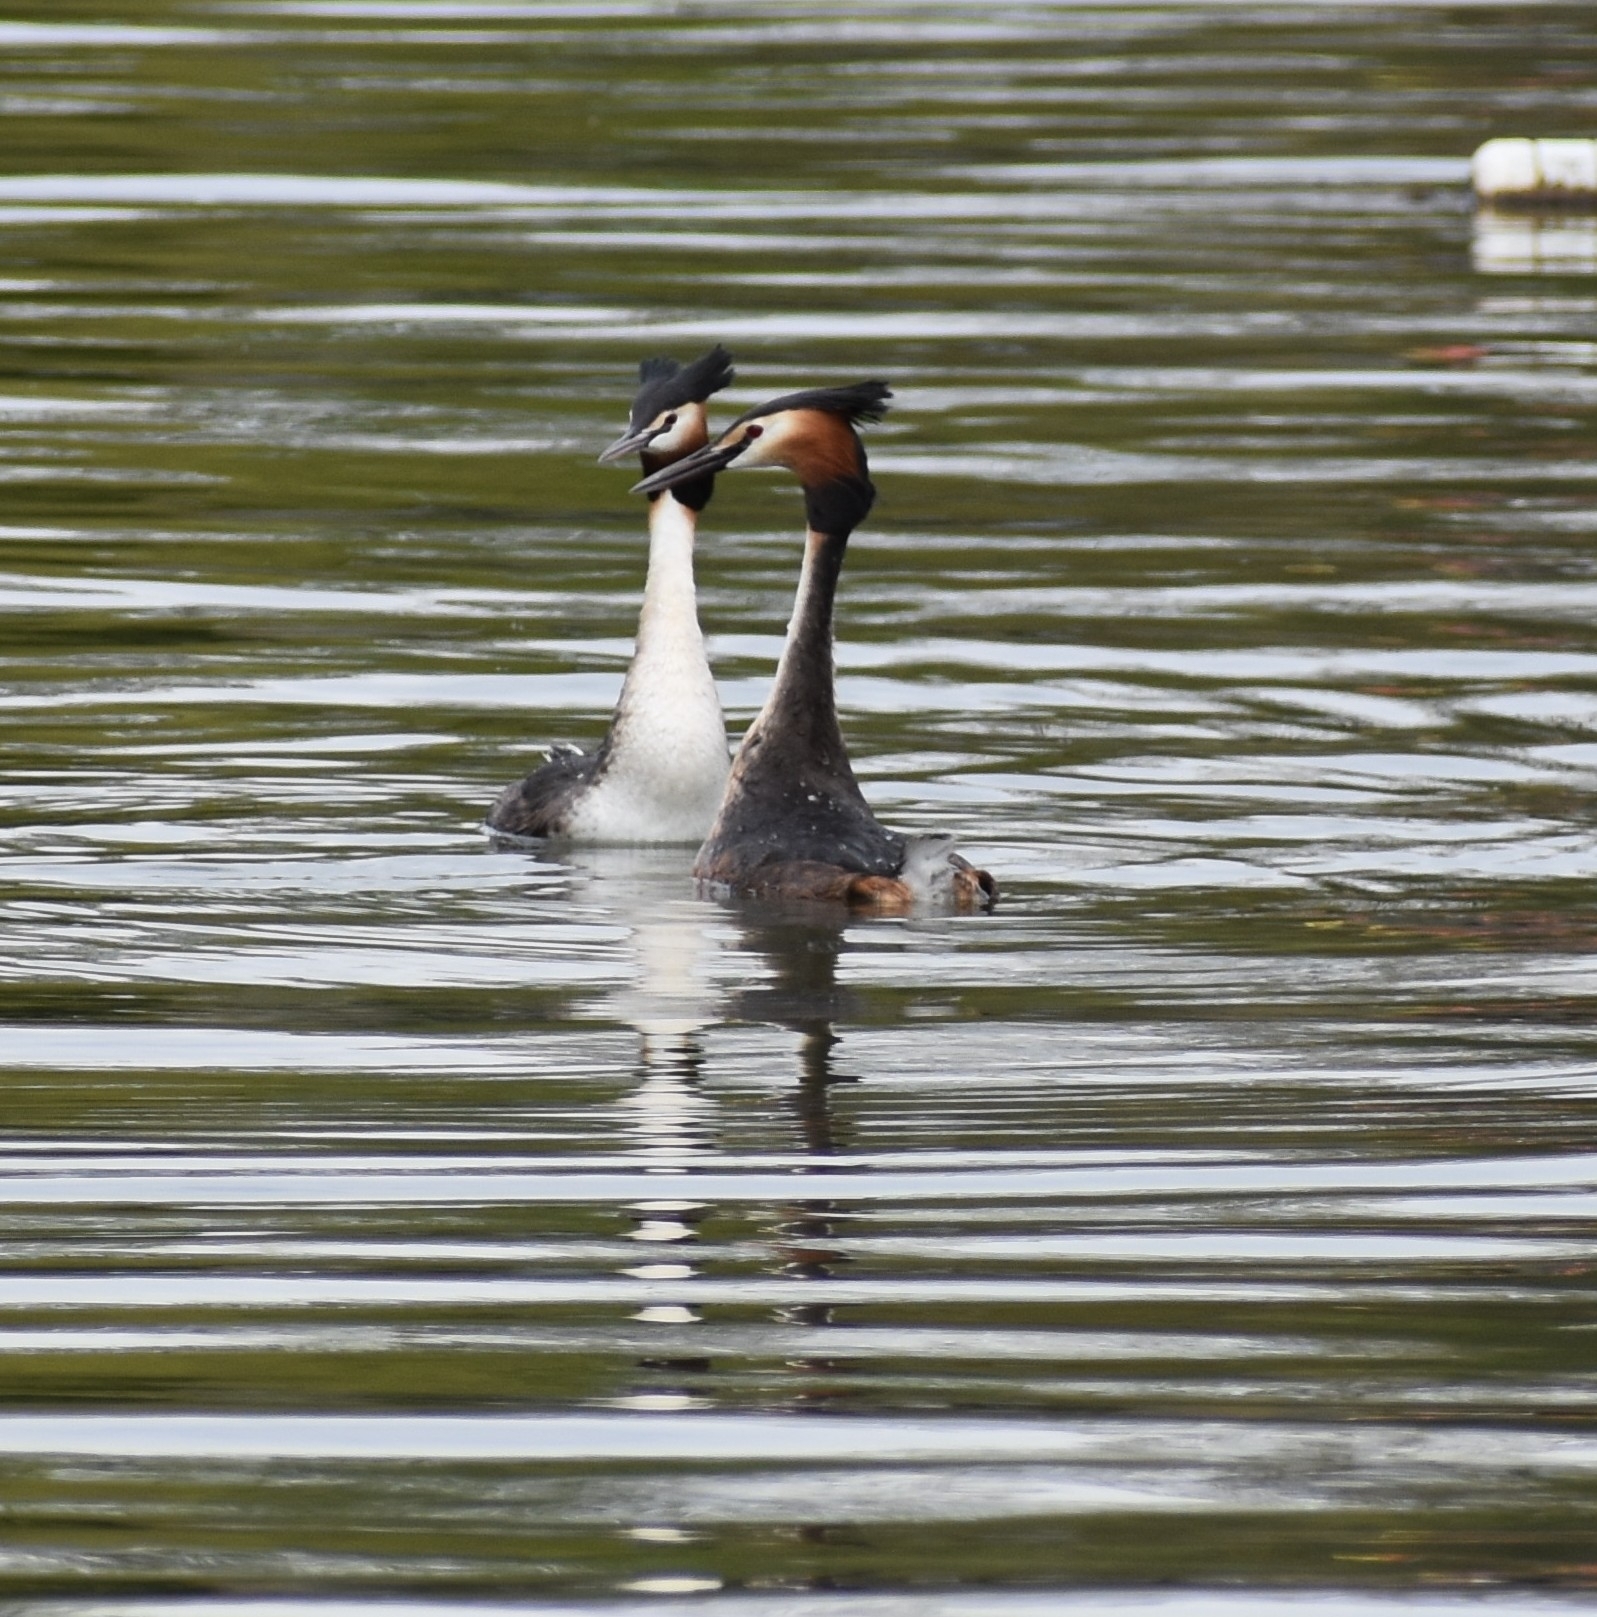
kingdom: Animalia
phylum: Chordata
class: Aves
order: Podicipediformes
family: Podicipedidae
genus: Podiceps
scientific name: Podiceps cristatus
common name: Great crested grebe
